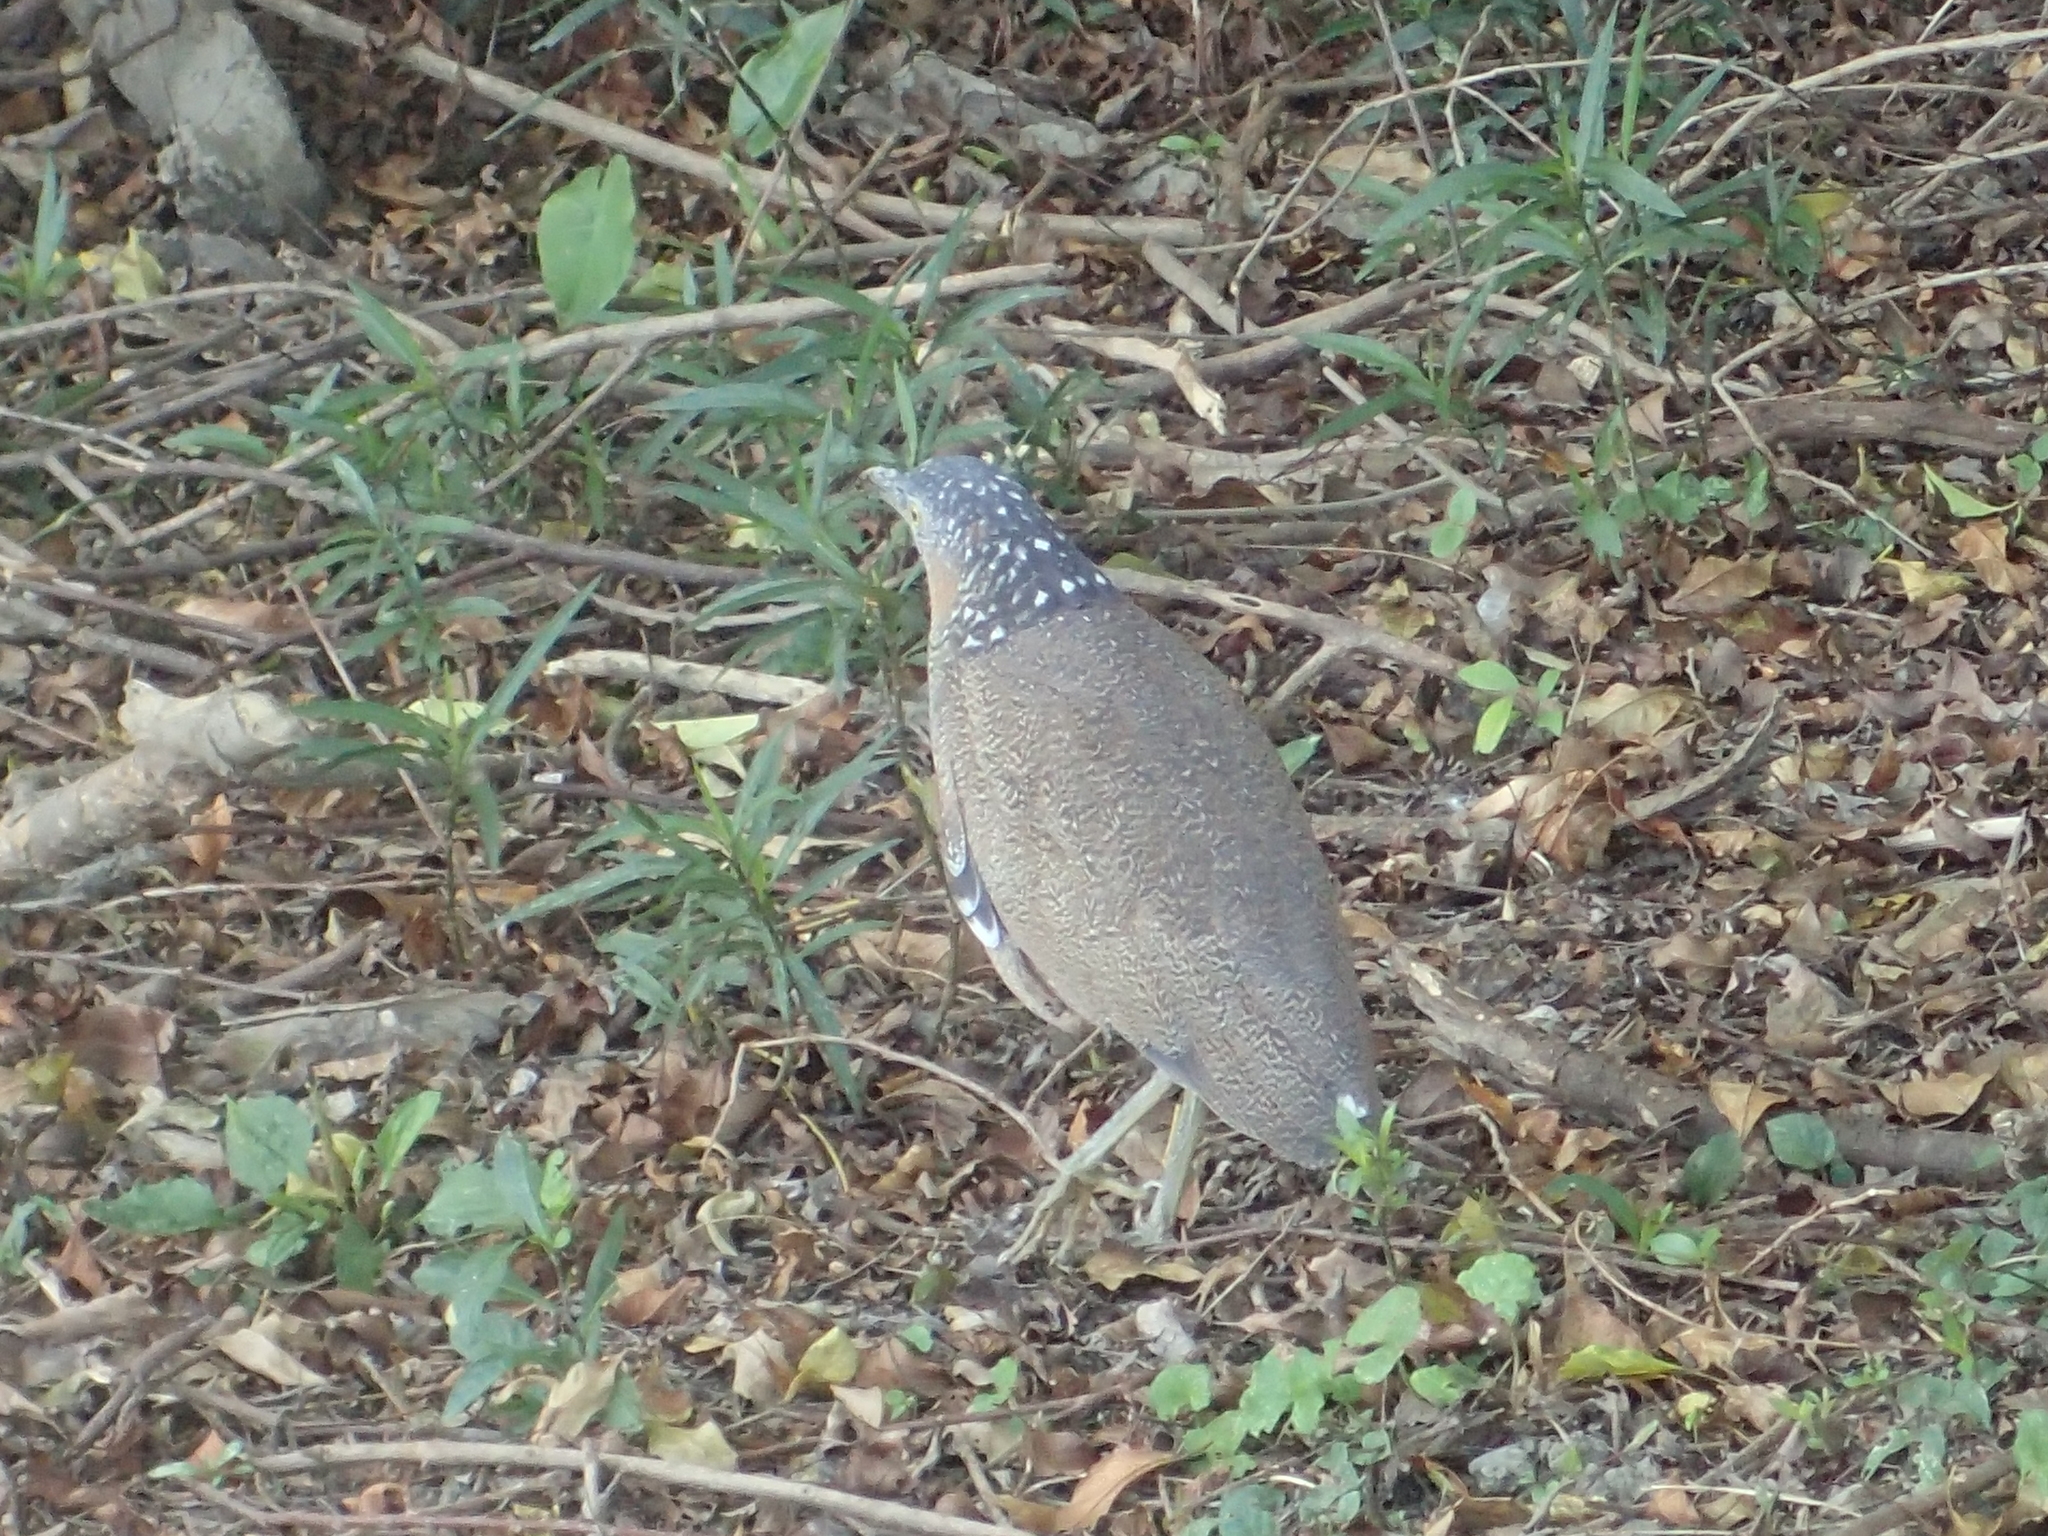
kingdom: Animalia
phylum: Chordata
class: Aves
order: Pelecaniformes
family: Ardeidae
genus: Gorsachius
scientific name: Gorsachius melanolophus
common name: Malayan night heron
